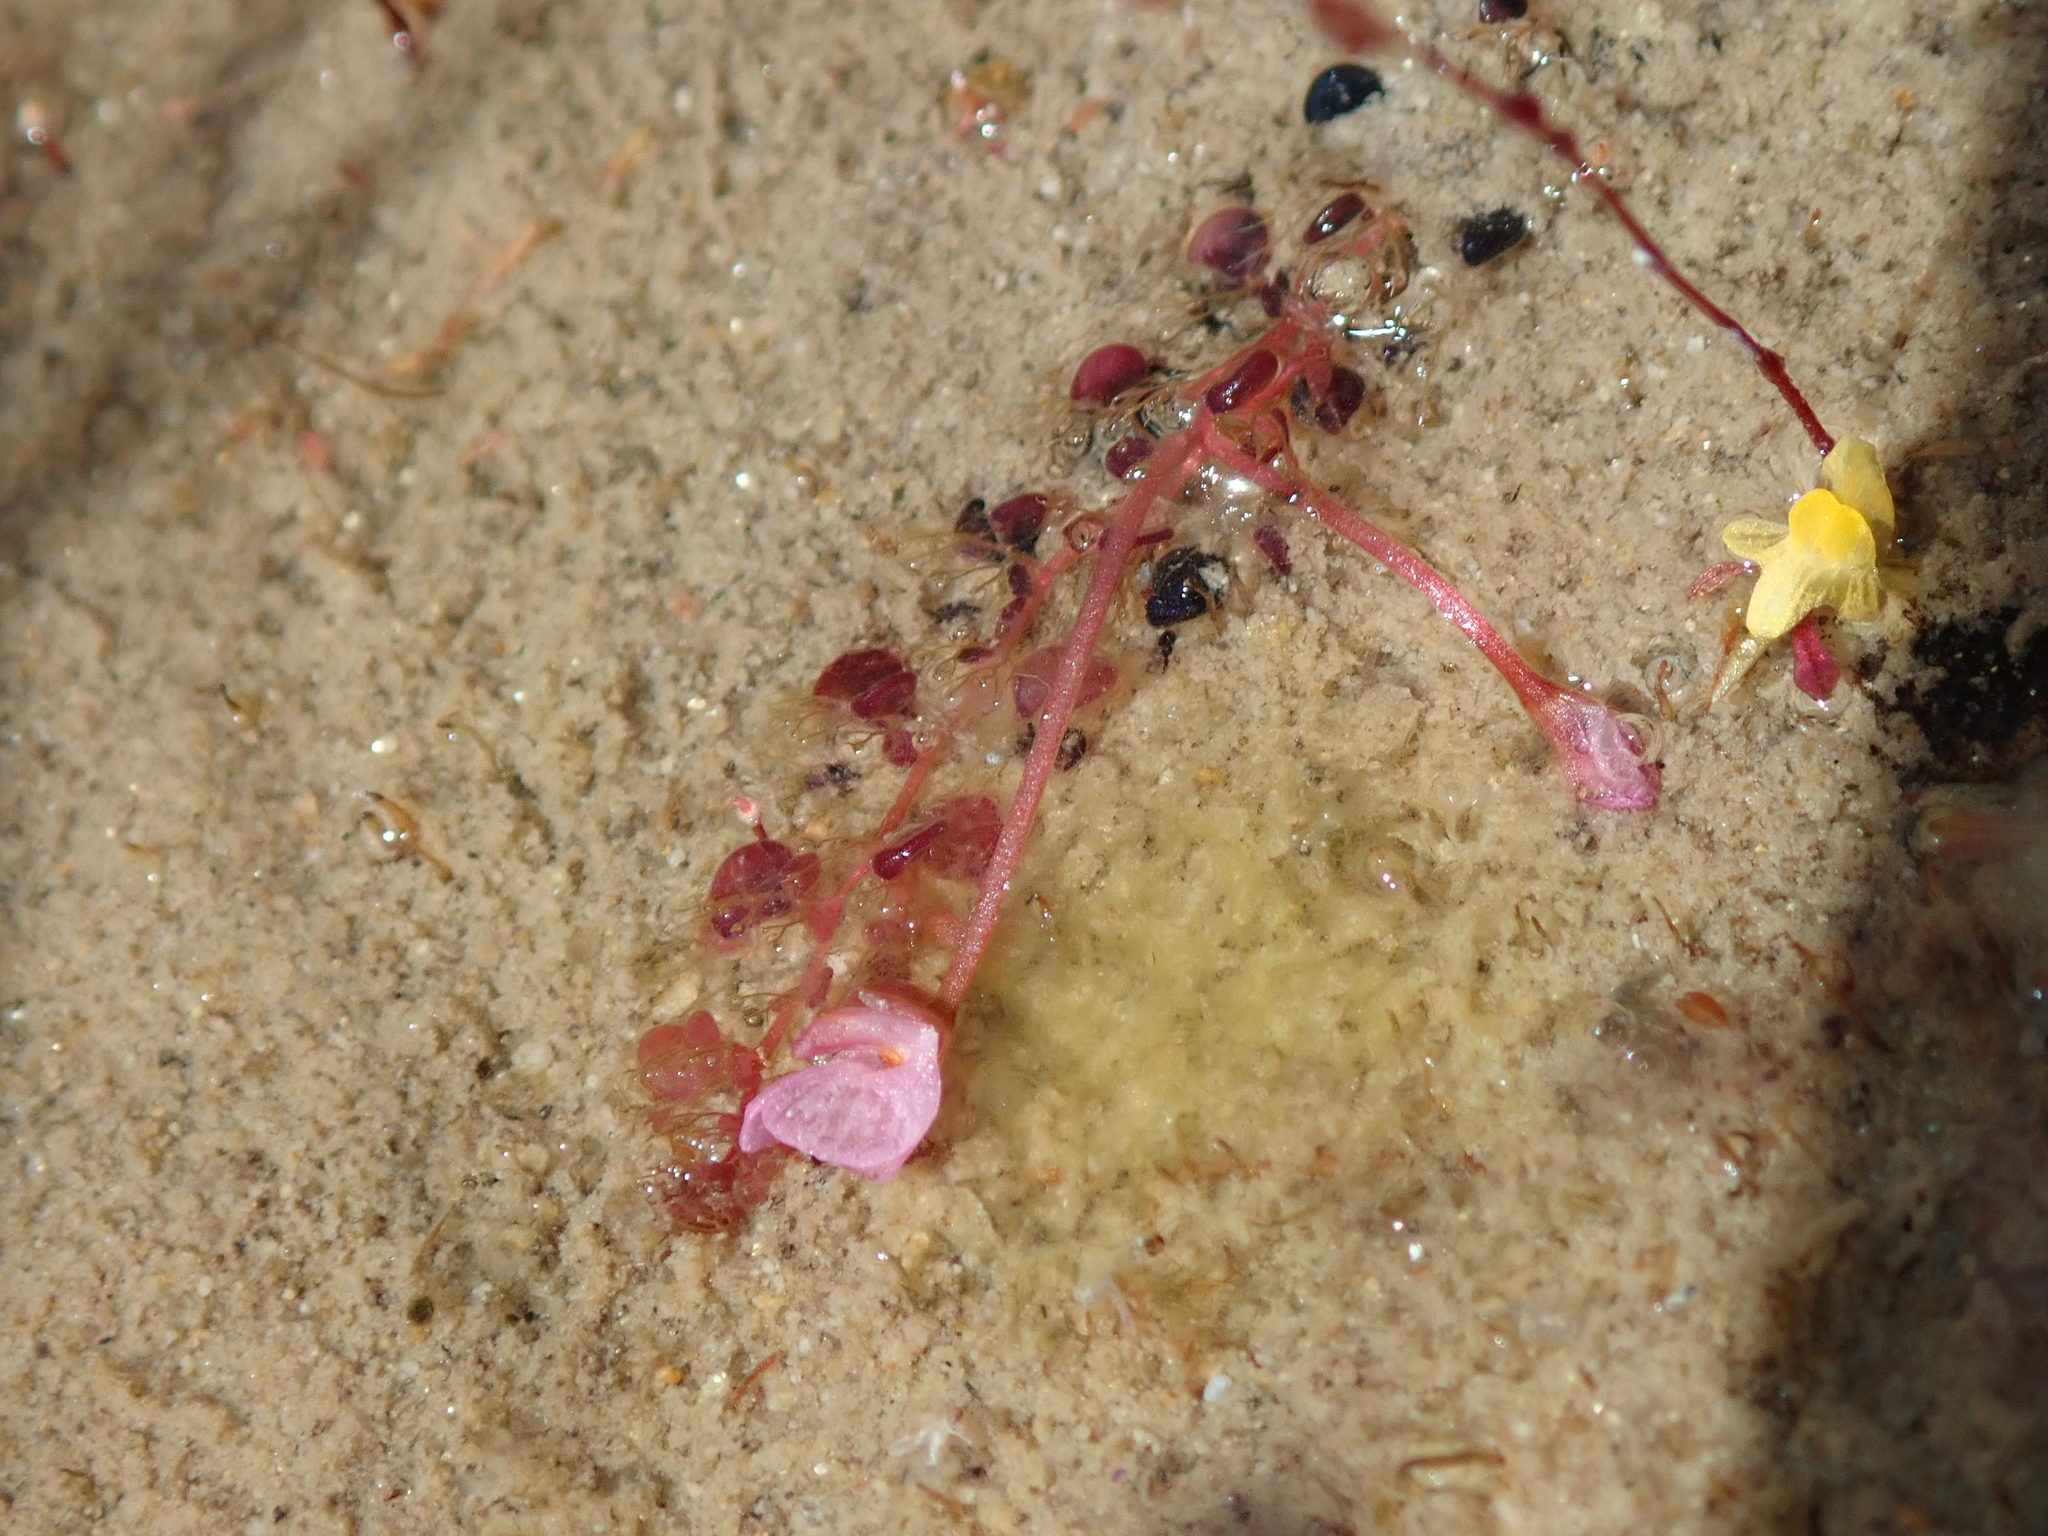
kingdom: Plantae
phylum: Tracheophyta
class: Magnoliopsida
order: Lamiales
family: Lentibulariaceae
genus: Utricularia
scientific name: Utricularia hydrocarpa
